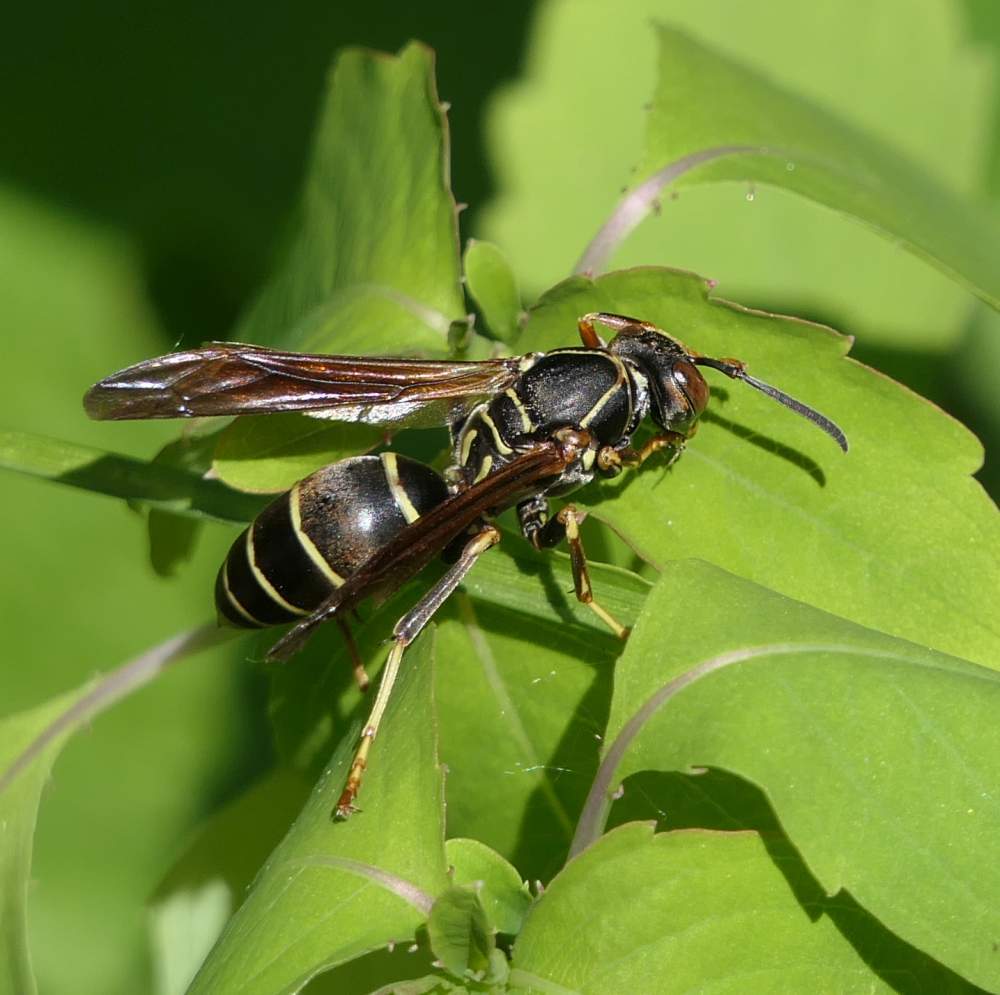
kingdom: Animalia
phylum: Arthropoda
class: Insecta
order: Hymenoptera
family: Eumenidae
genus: Polistes
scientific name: Polistes fuscatus
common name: Dark paper wasp
